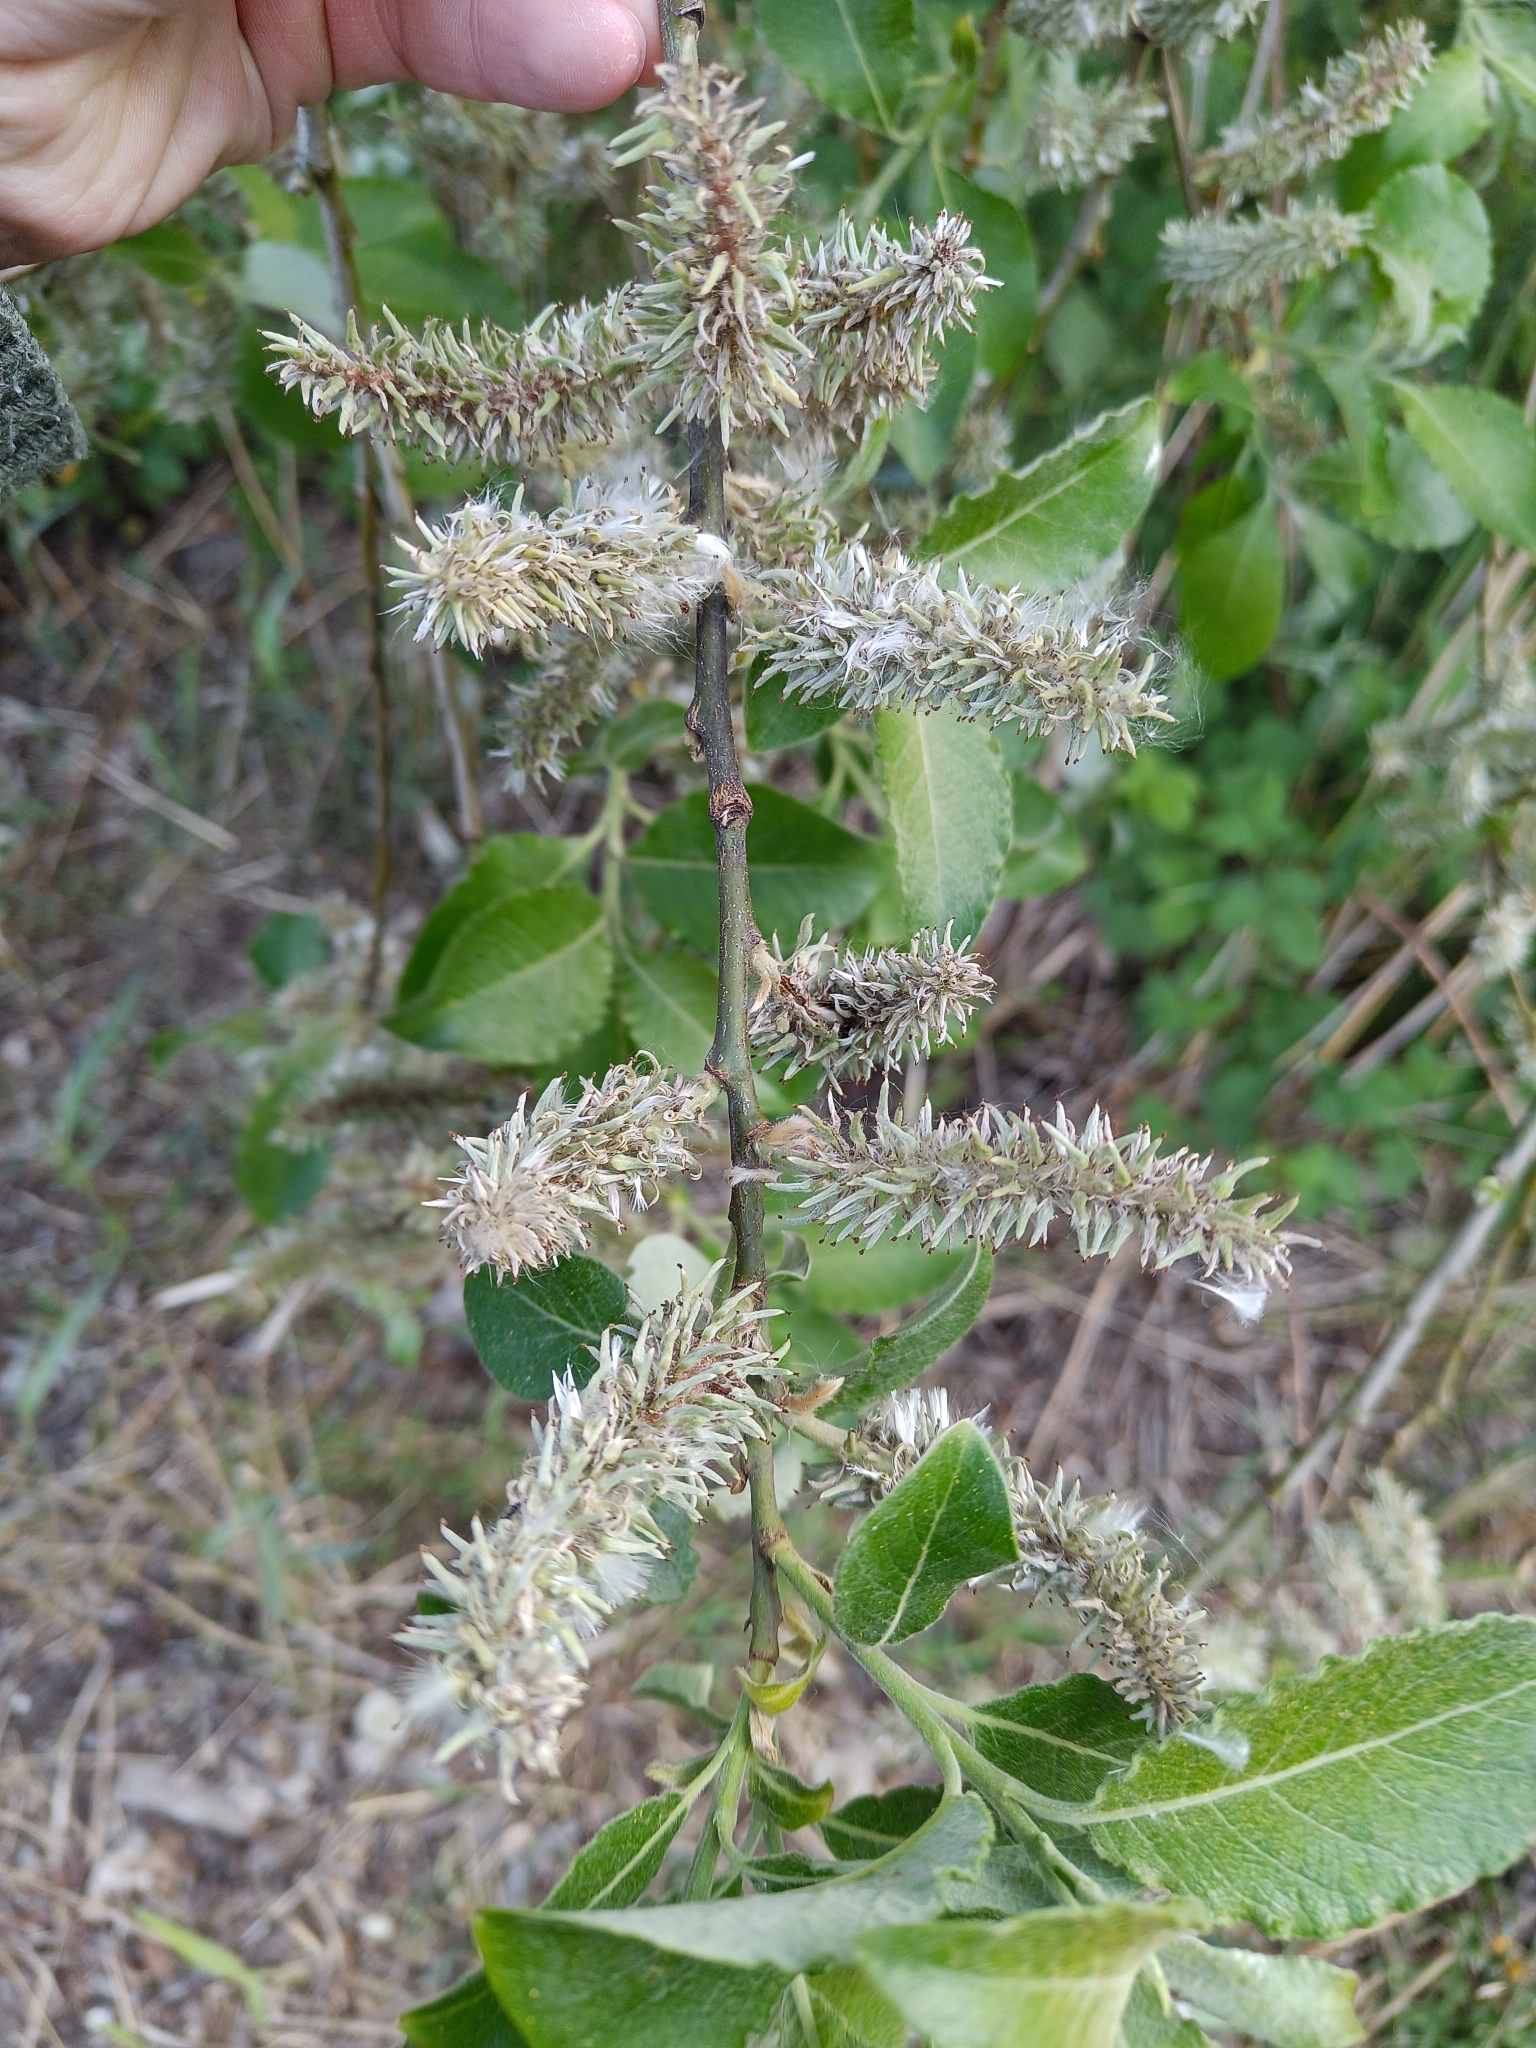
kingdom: Plantae
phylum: Tracheophyta
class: Magnoliopsida
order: Malpighiales
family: Salicaceae
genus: Salix
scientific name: Salix caprea
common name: Goat willow
